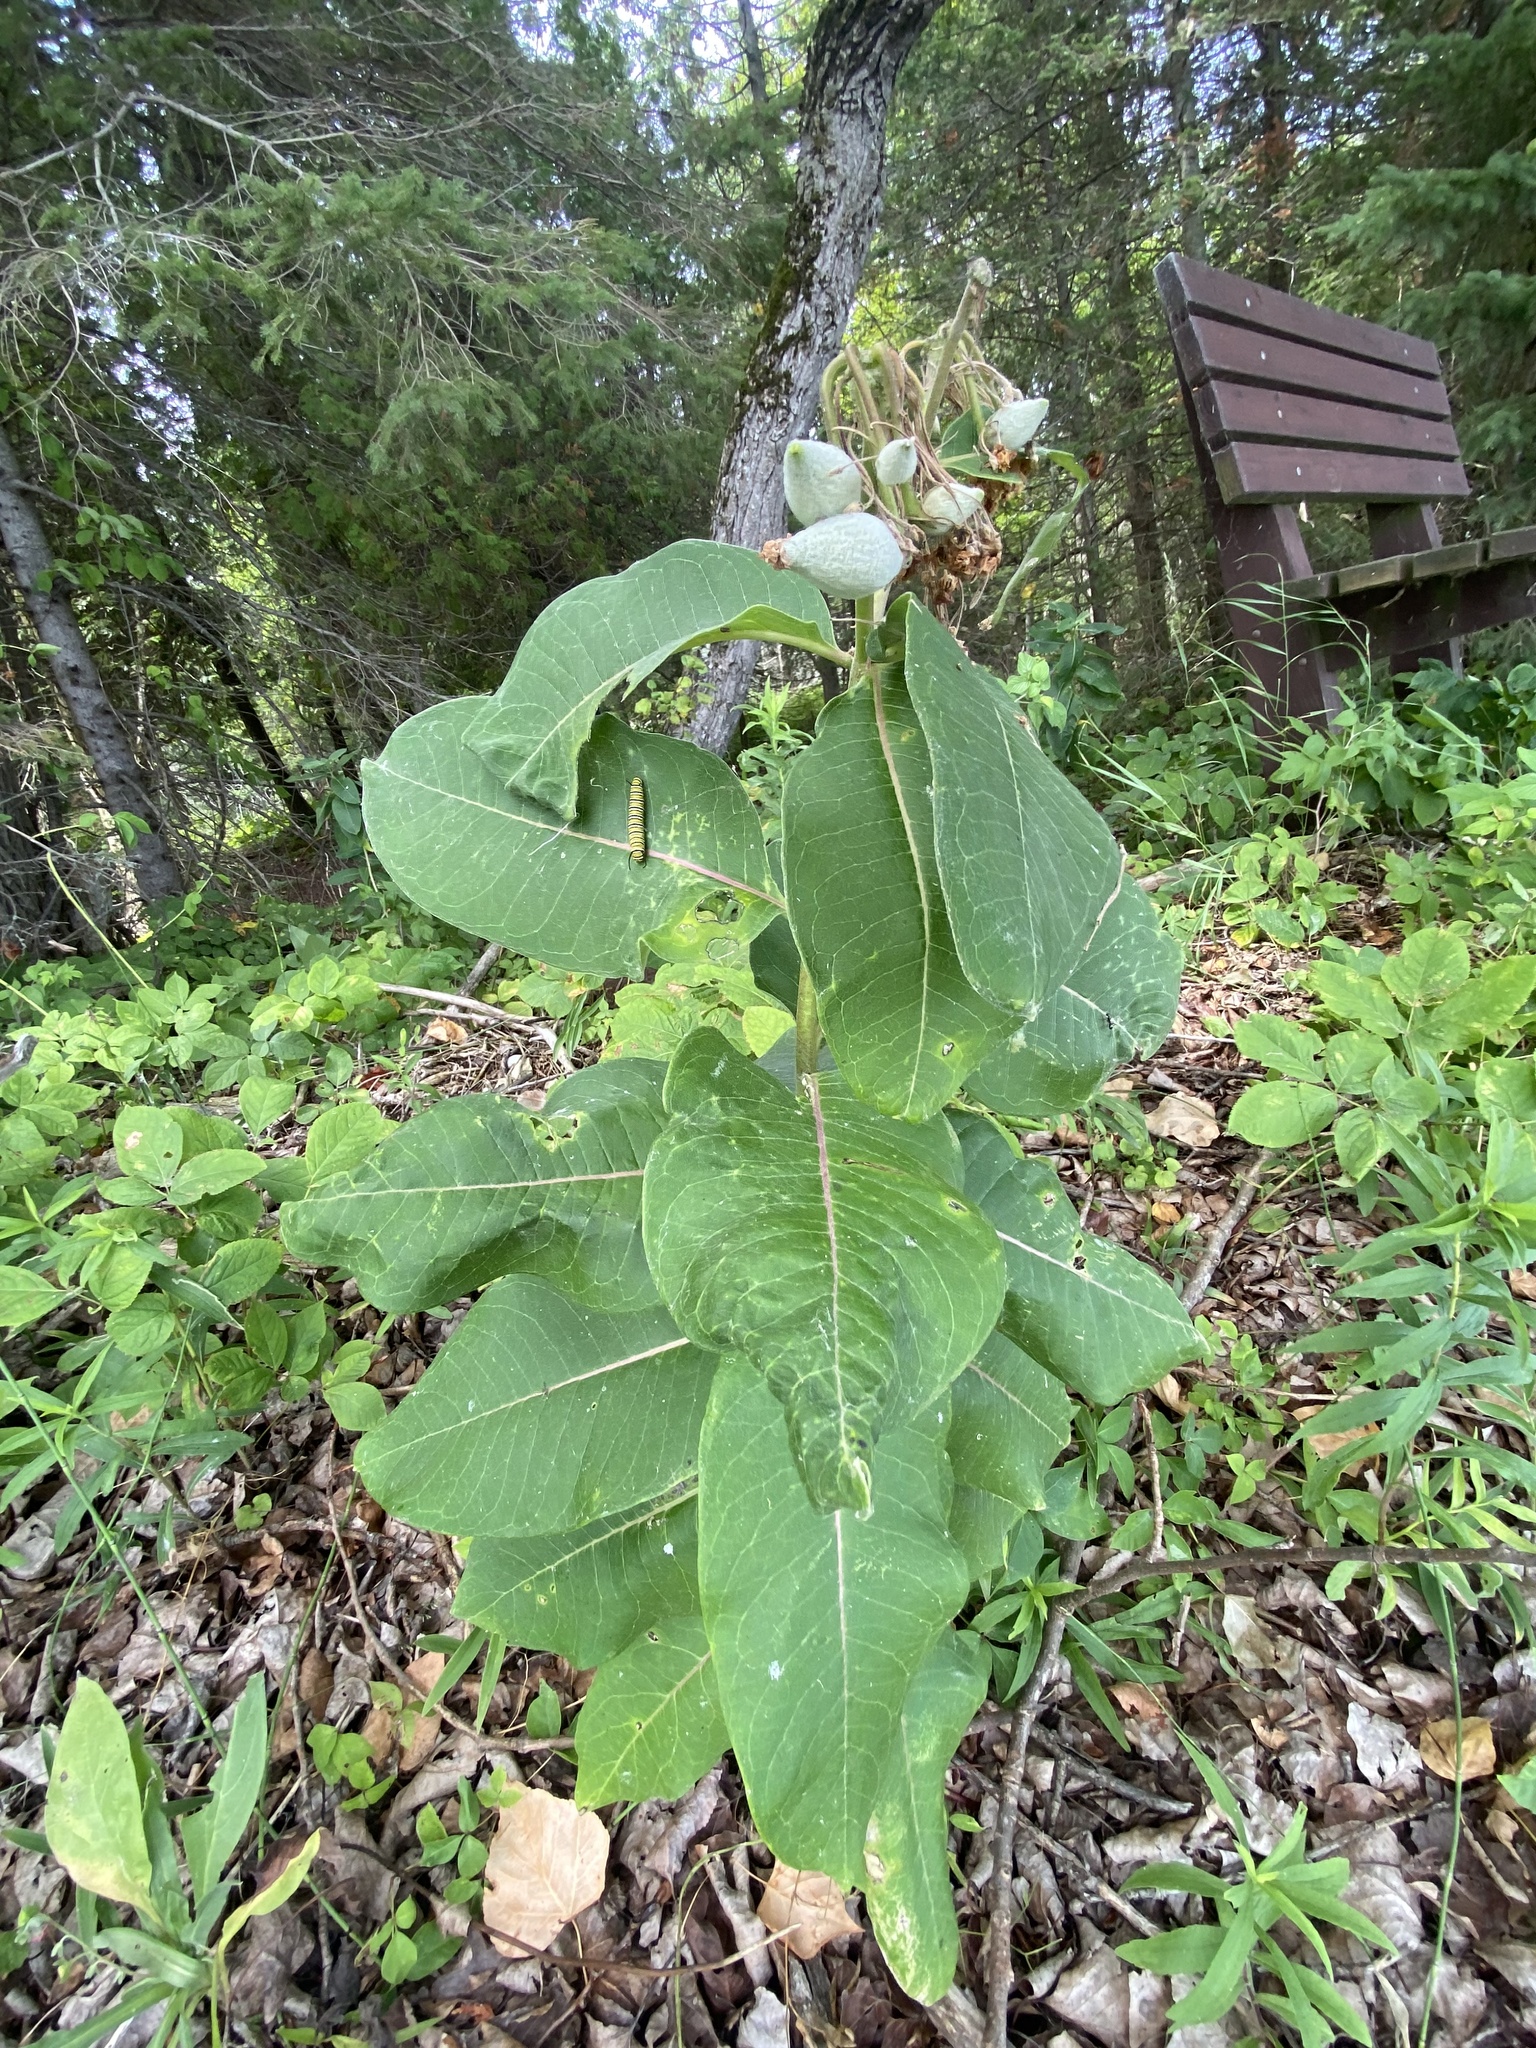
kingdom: Plantae
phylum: Tracheophyta
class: Magnoliopsida
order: Gentianales
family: Apocynaceae
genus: Asclepias
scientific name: Asclepias syriaca
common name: Common milkweed
